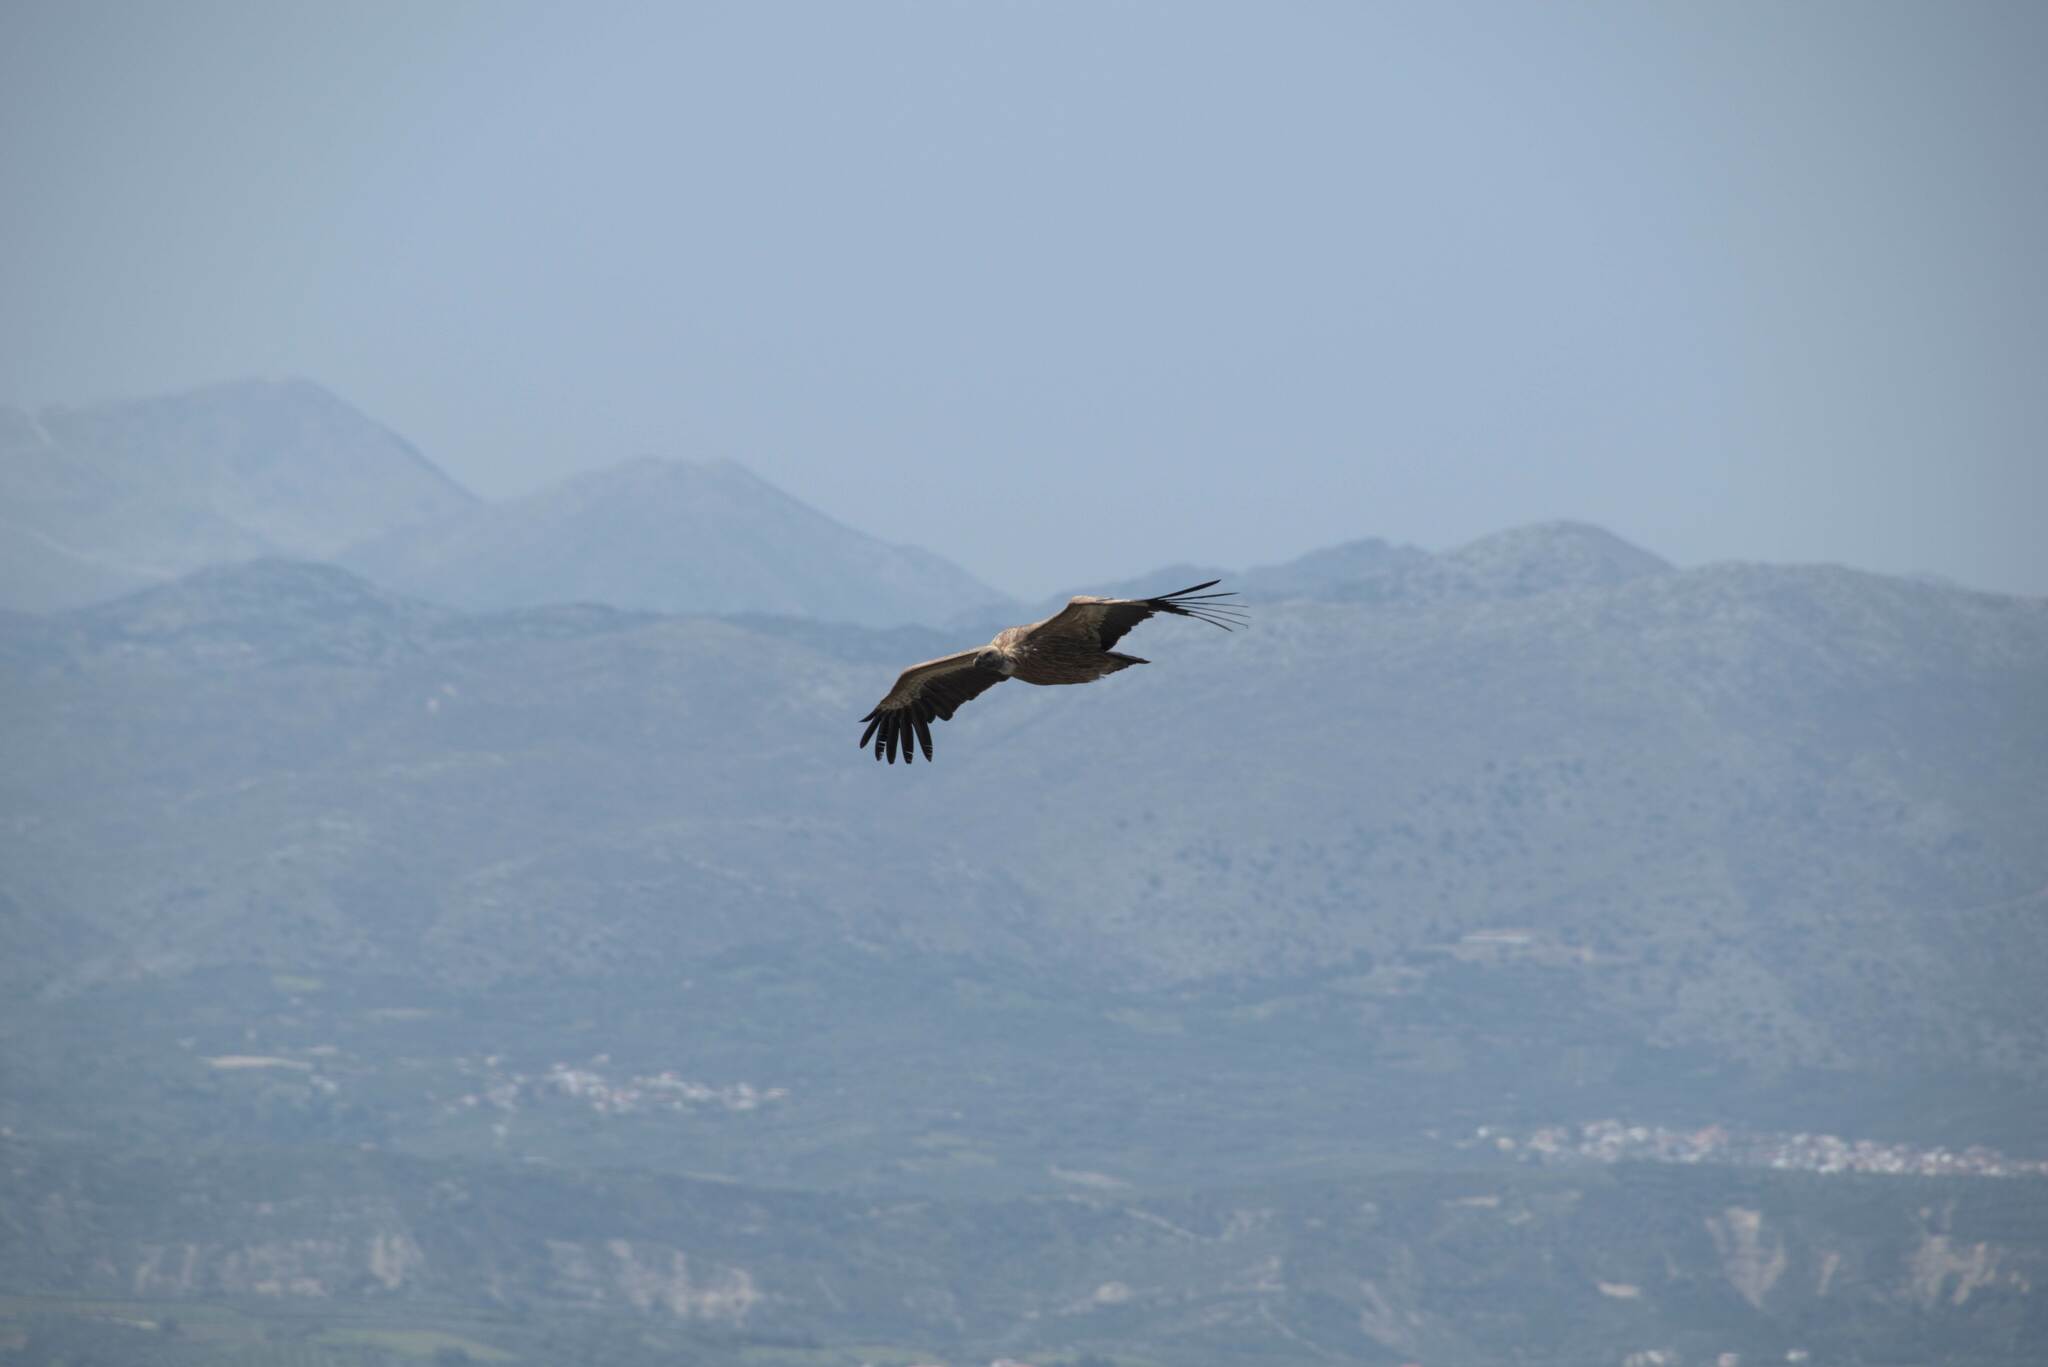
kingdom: Animalia
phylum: Chordata
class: Aves
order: Accipitriformes
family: Accipitridae
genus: Gyps
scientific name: Gyps fulvus
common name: Griffon vulture
